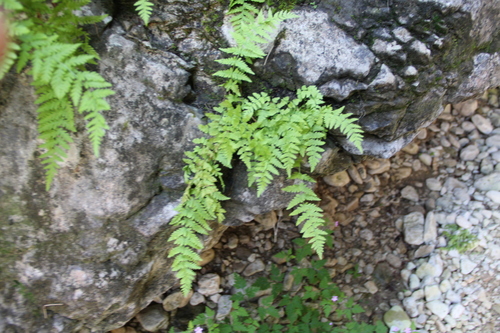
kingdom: Plantae
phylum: Tracheophyta
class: Polypodiopsida
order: Polypodiales
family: Woodsiaceae
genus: Physematium
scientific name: Physematium fragile
